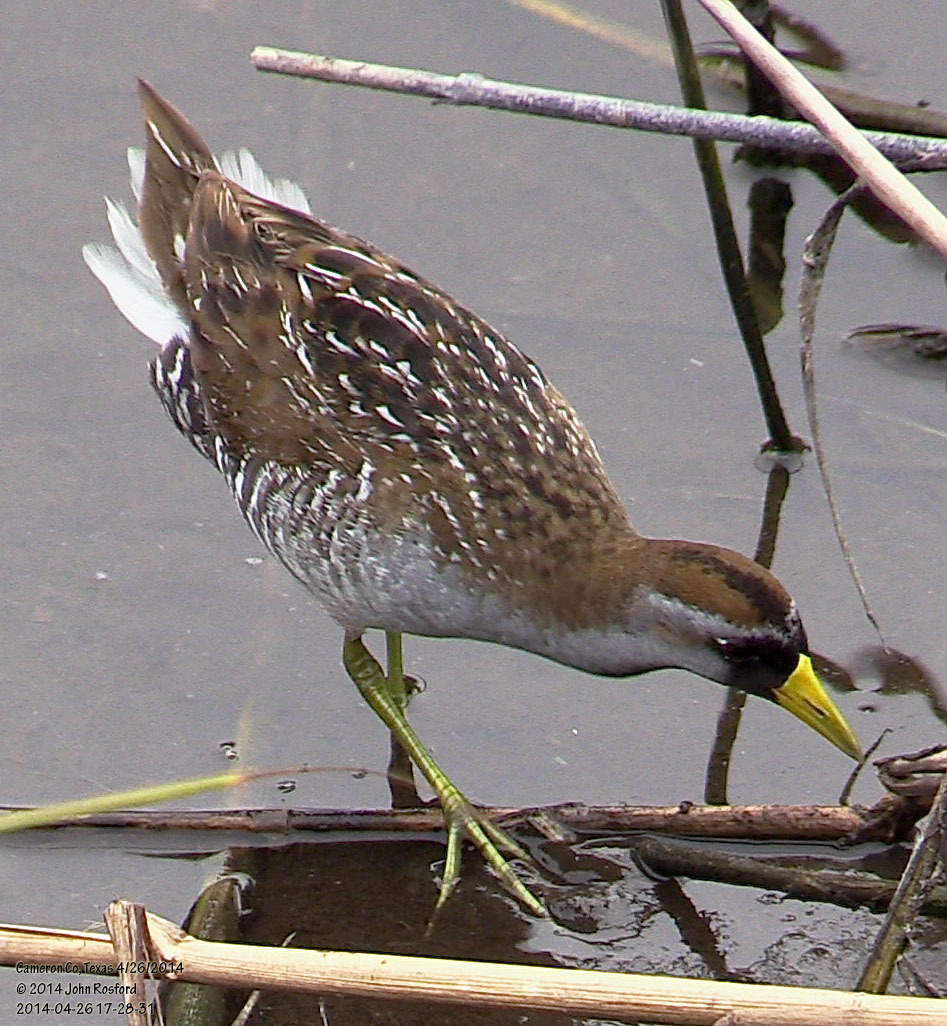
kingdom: Animalia
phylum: Chordata
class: Aves
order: Gruiformes
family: Rallidae
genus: Porzana
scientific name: Porzana carolina
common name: Sora
